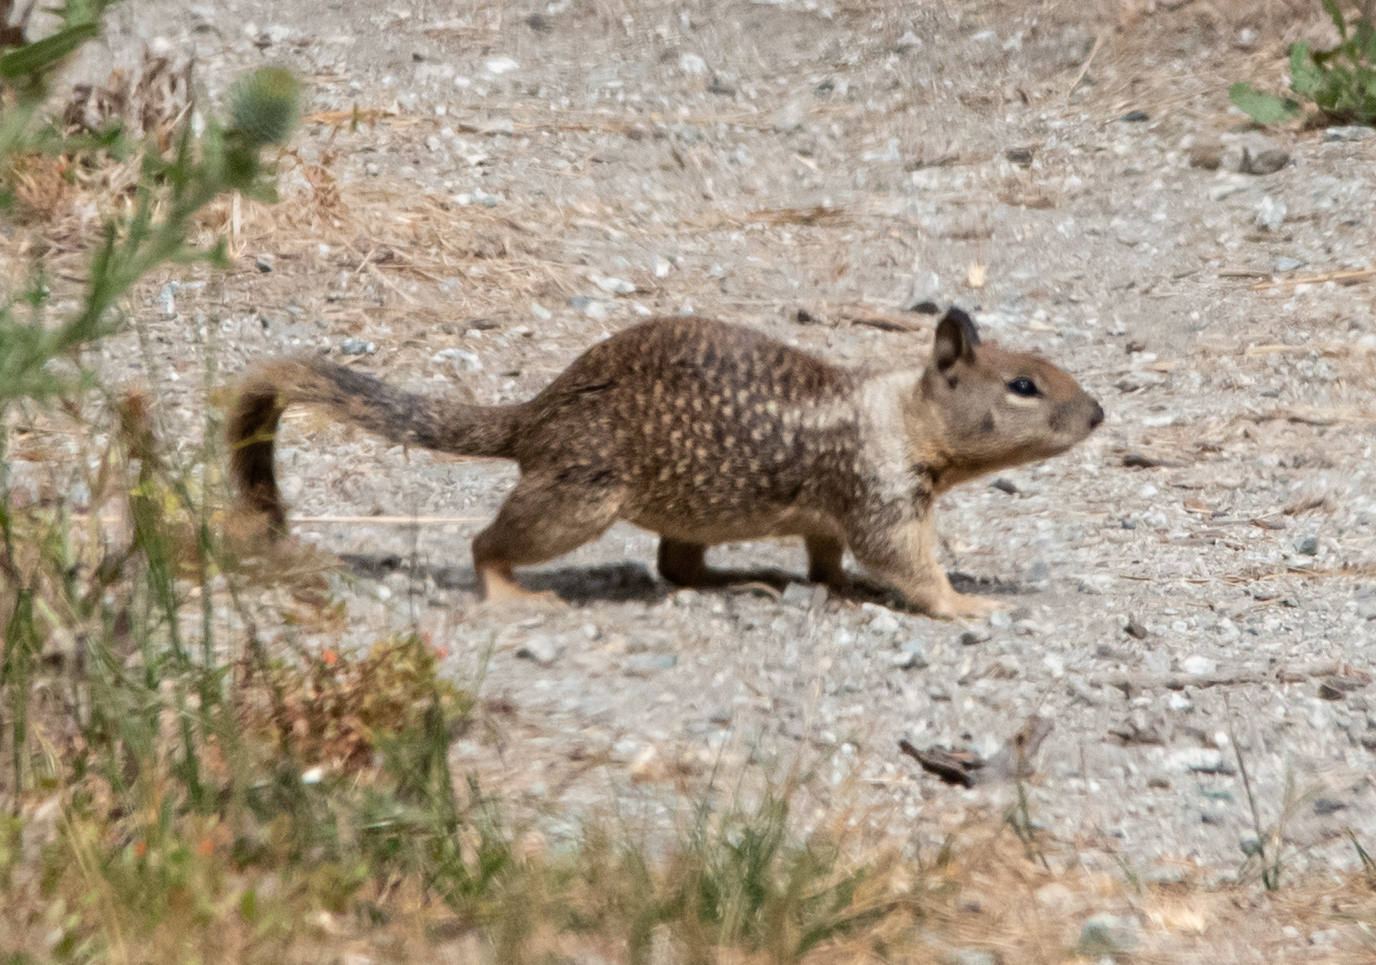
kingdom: Animalia
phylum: Chordata
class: Mammalia
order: Rodentia
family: Sciuridae
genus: Otospermophilus
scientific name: Otospermophilus beecheyi
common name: California ground squirrel
